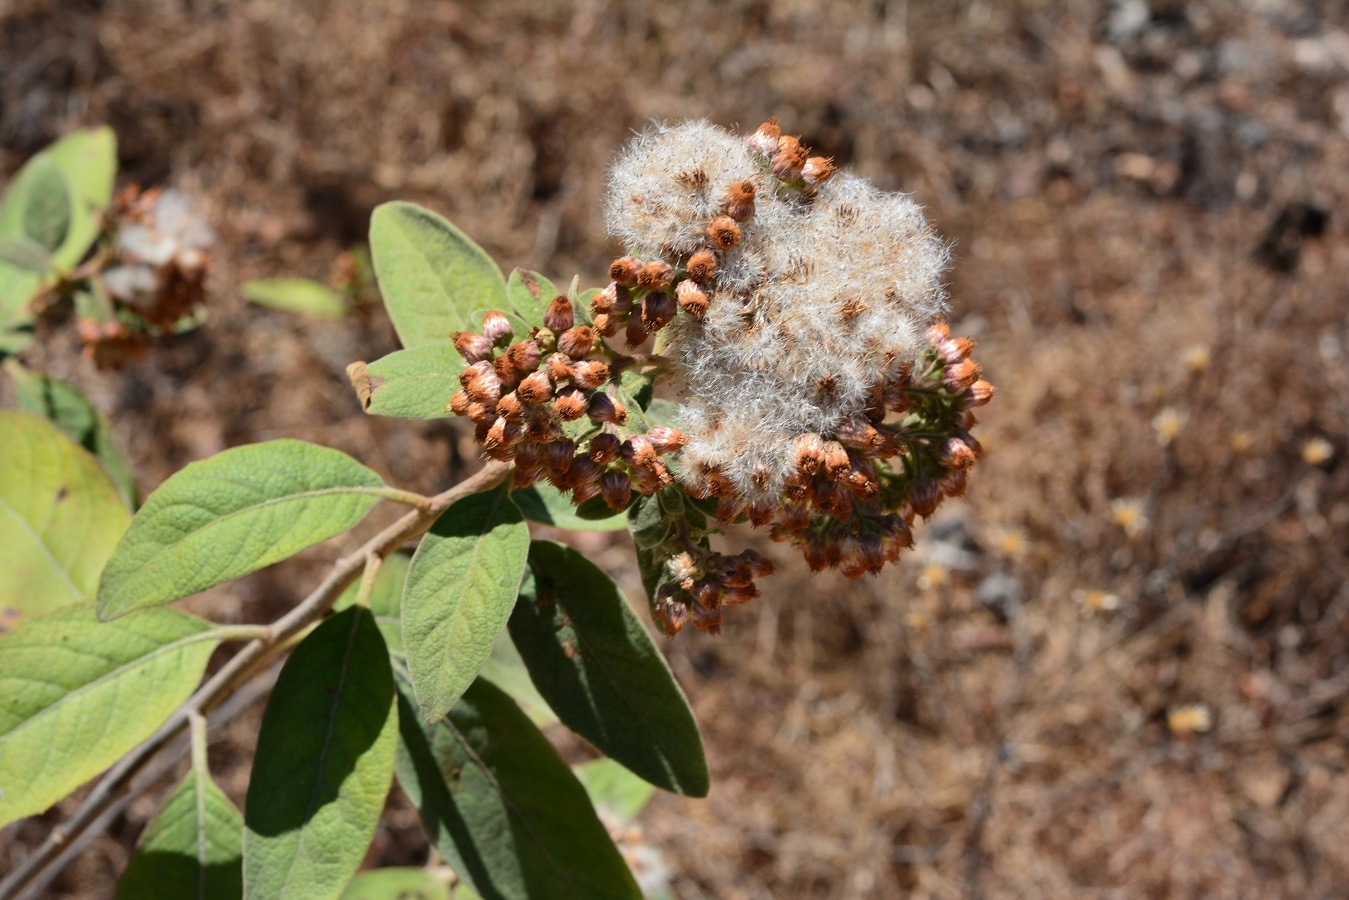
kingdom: Plantae
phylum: Tracheophyta
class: Magnoliopsida
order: Asterales
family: Asteraceae
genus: Pluchea
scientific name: Pluchea carolinensis
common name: Marsh fleabane
